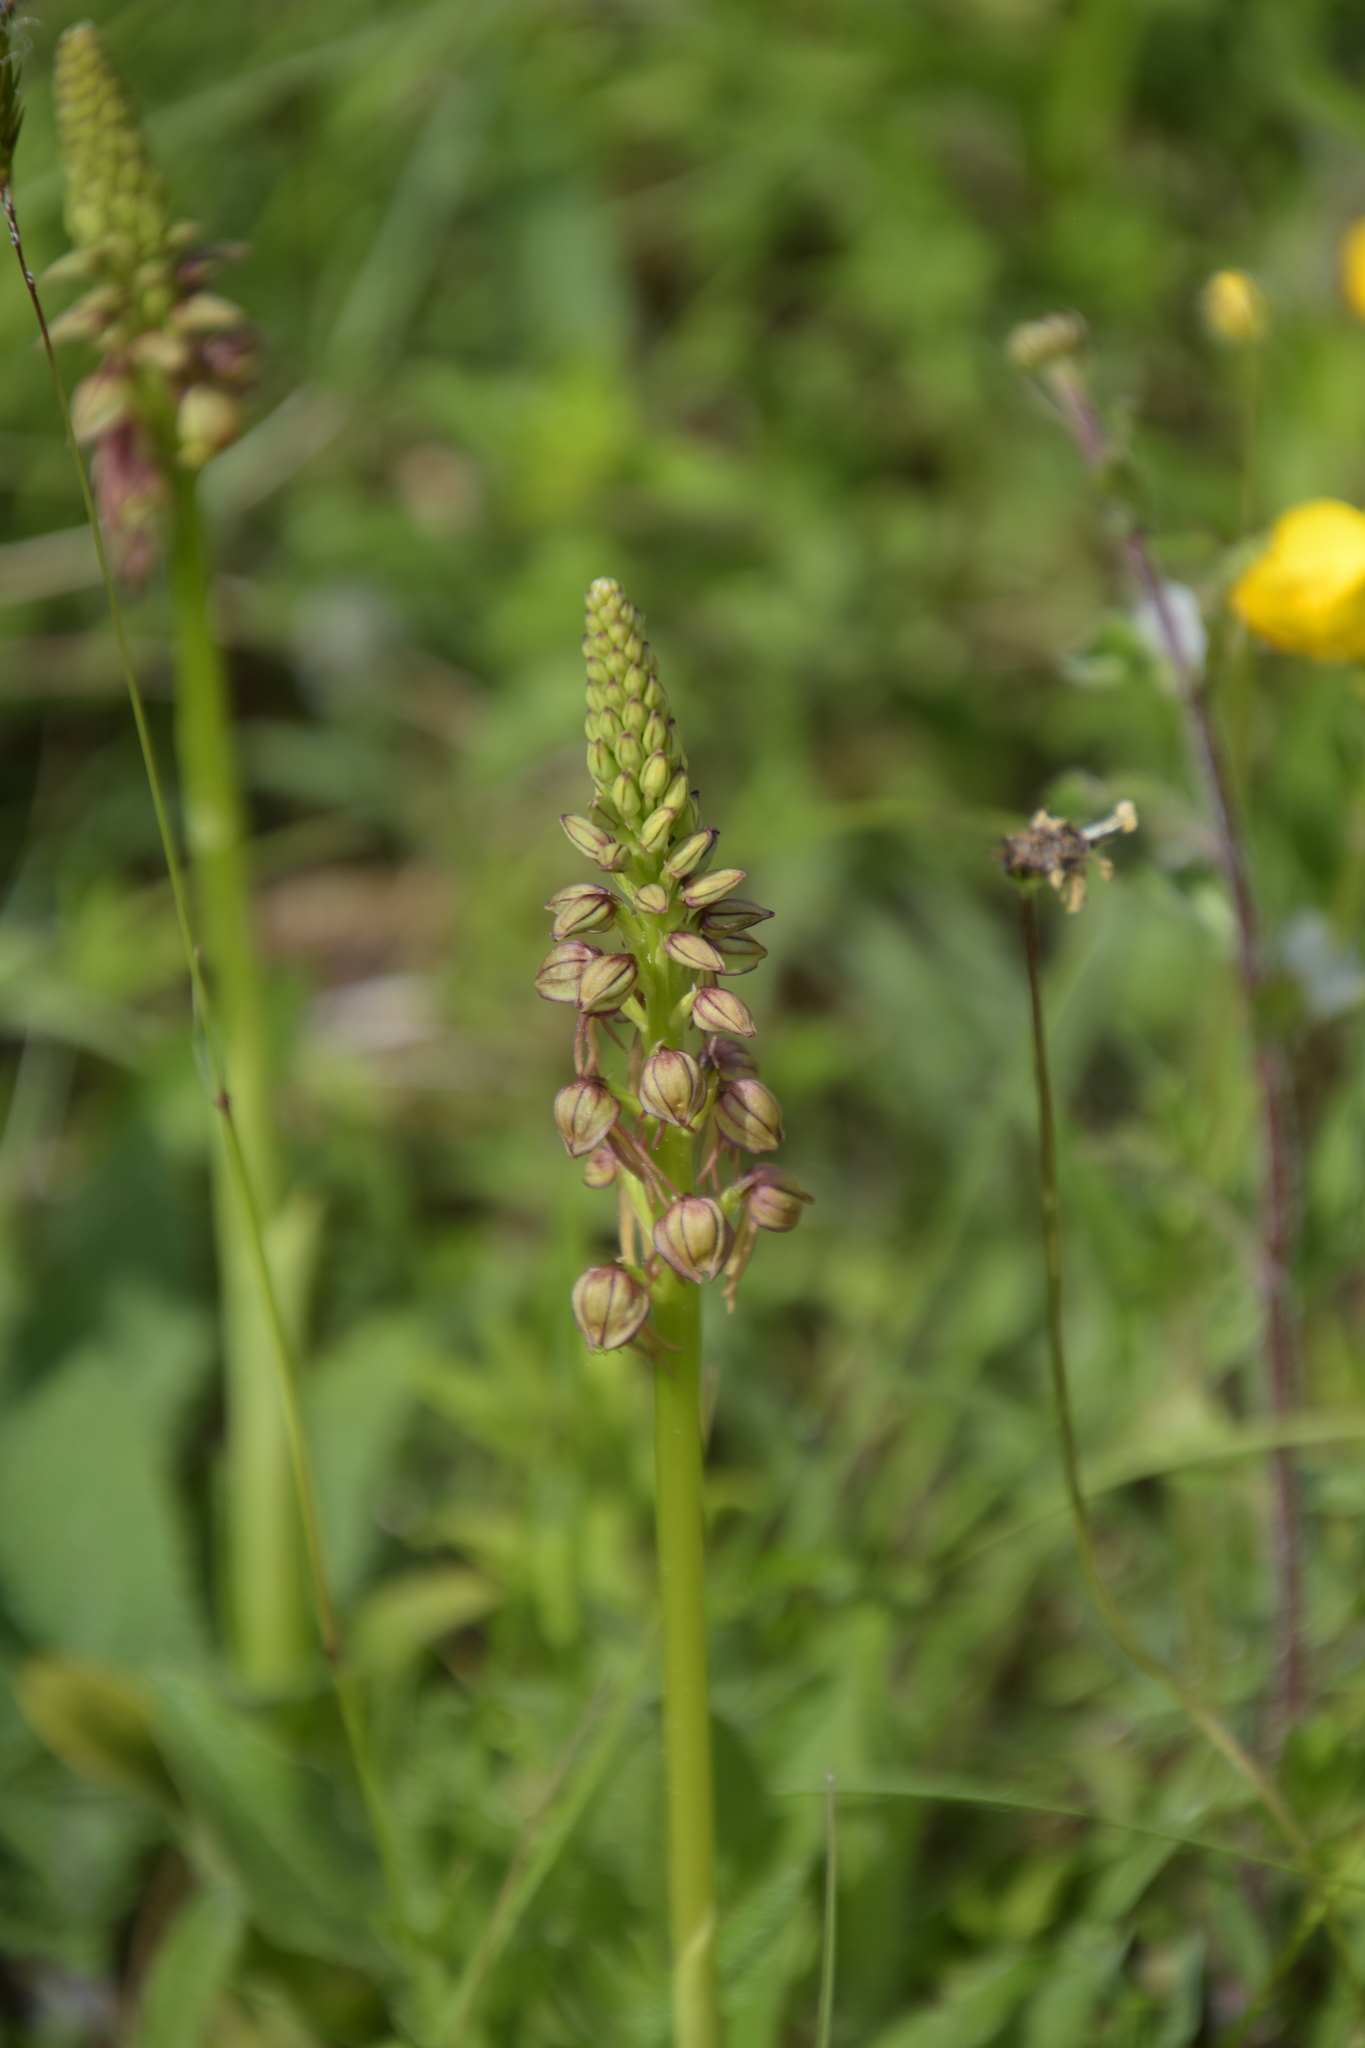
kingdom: Plantae
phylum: Tracheophyta
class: Liliopsida
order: Asparagales
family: Orchidaceae
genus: Orchis
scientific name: Orchis anthropophora
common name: Man orchid
